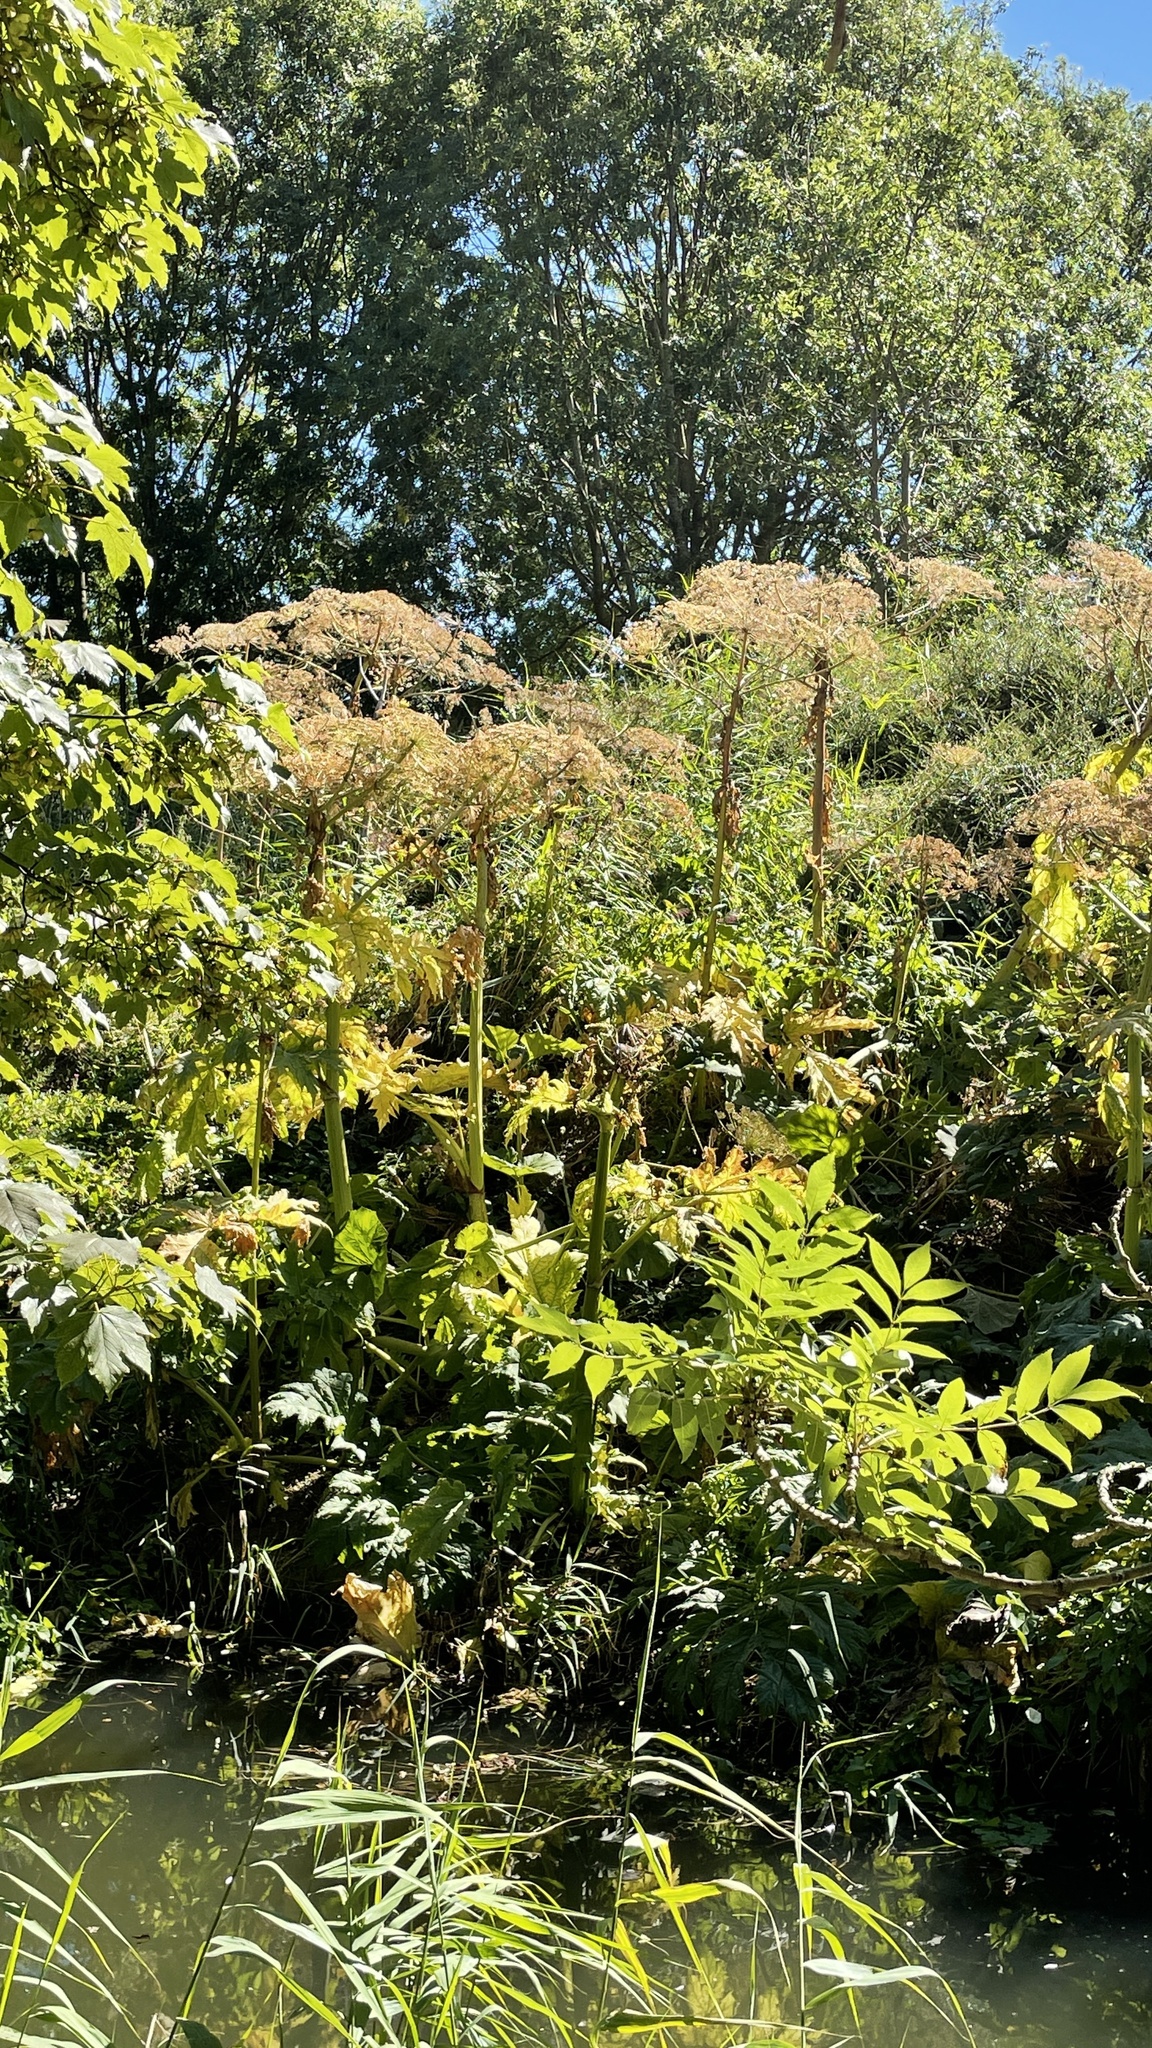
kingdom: Plantae
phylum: Tracheophyta
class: Magnoliopsida
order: Apiales
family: Apiaceae
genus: Heracleum
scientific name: Heracleum mantegazzianum
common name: Giant hogweed
